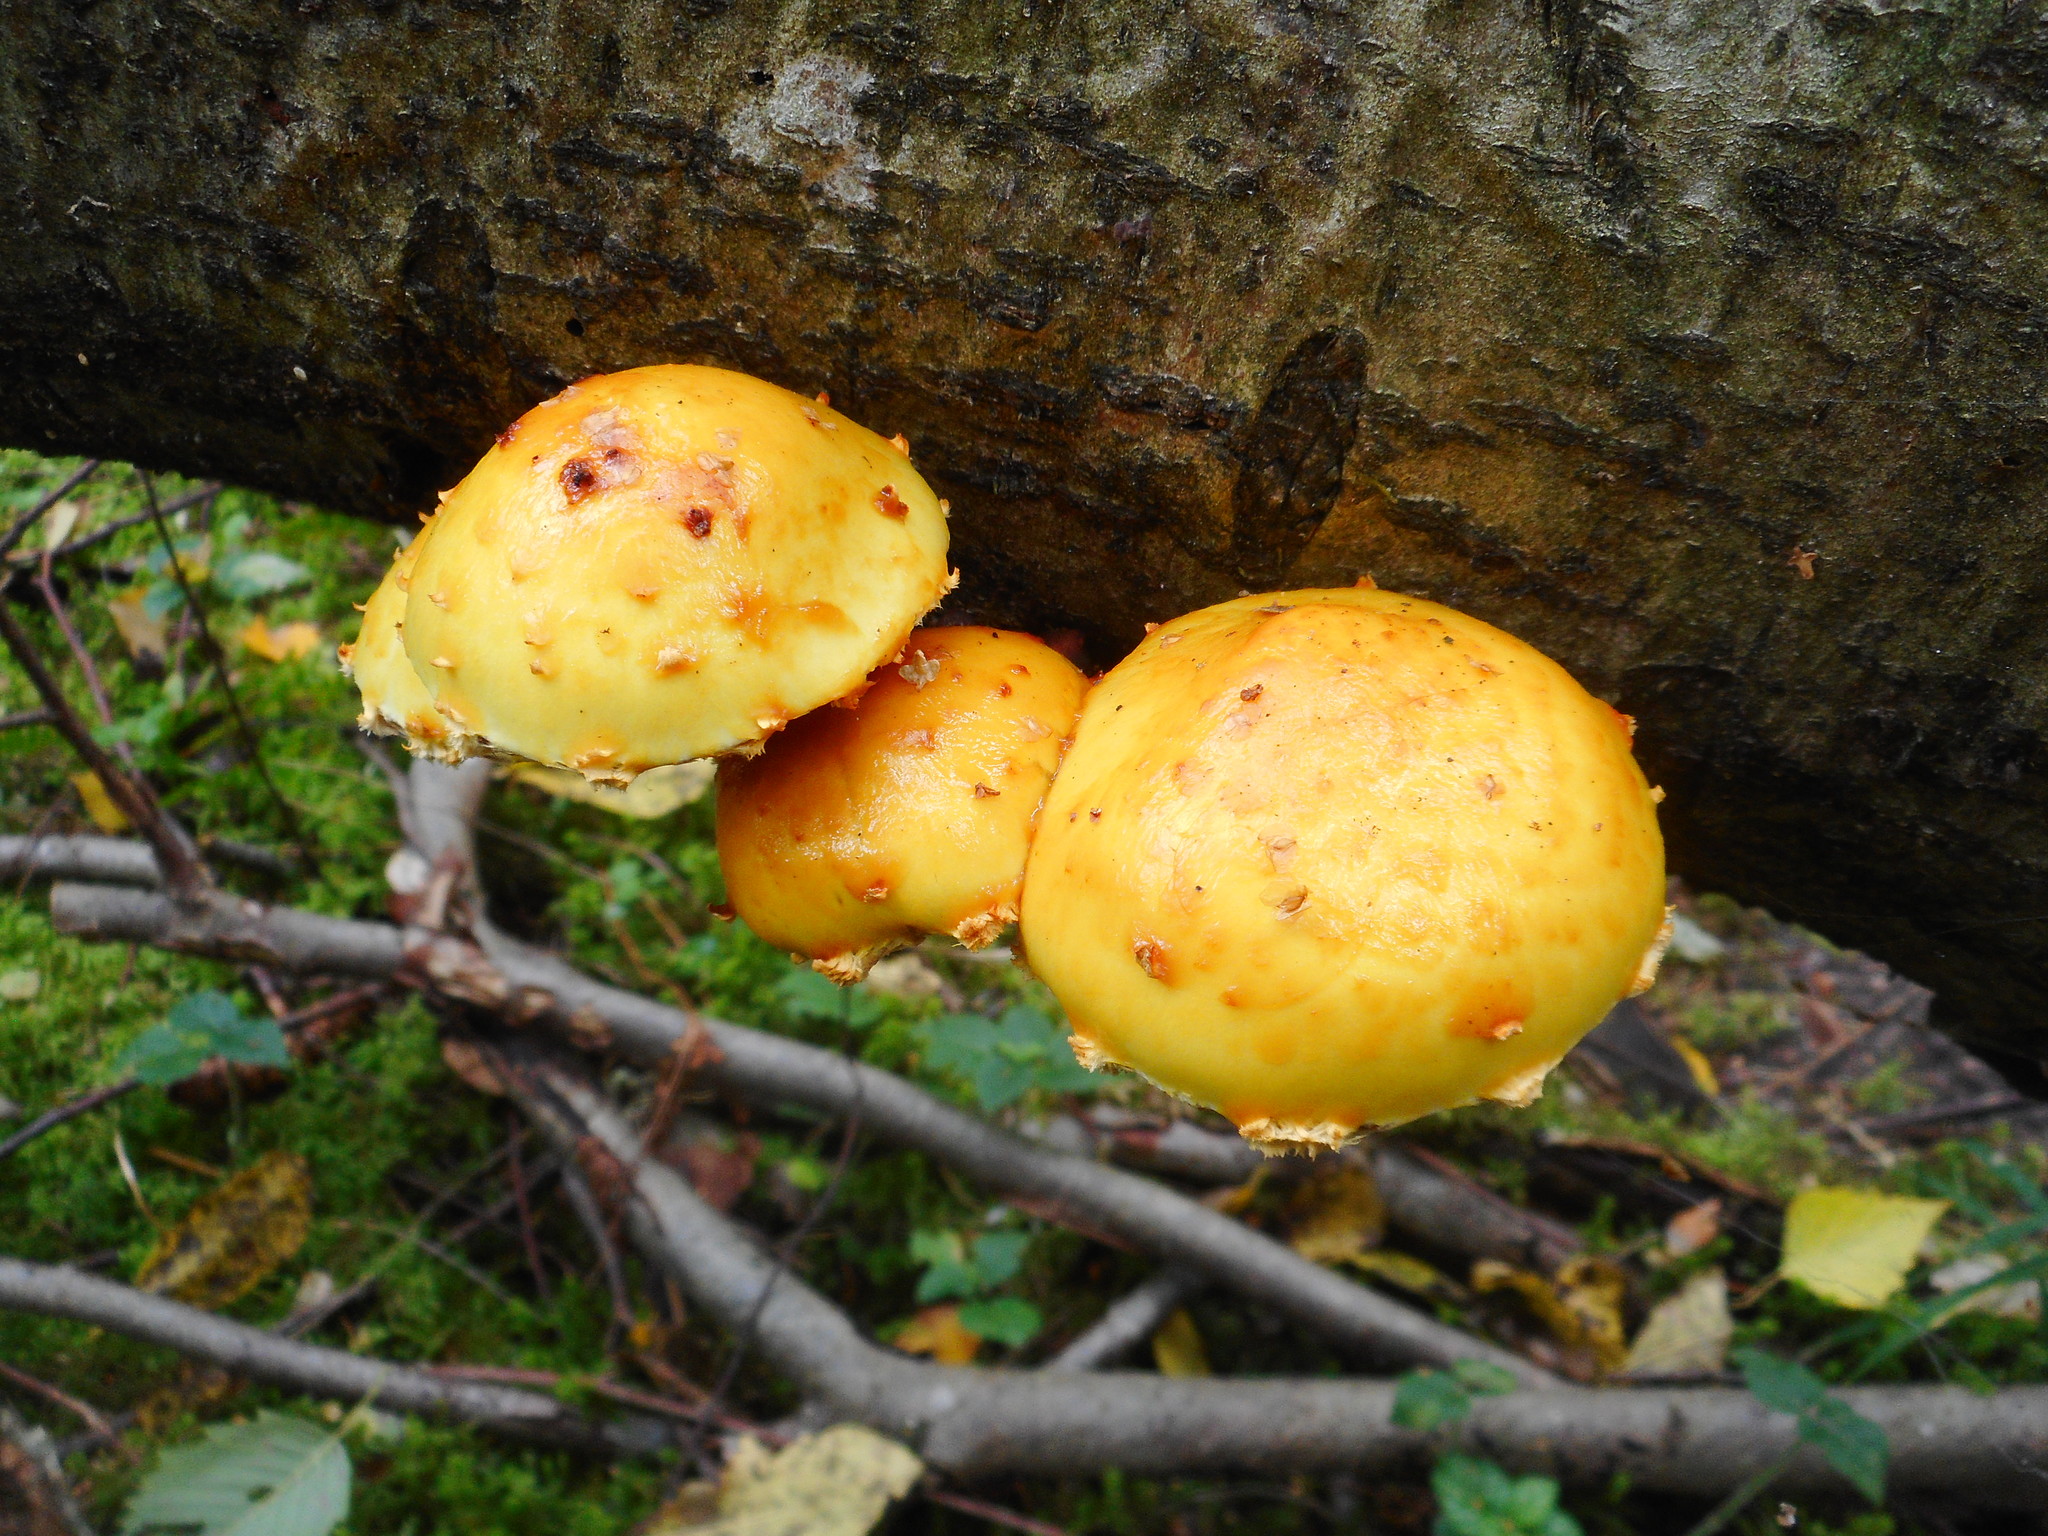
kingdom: Fungi
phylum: Basidiomycota
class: Agaricomycetes
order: Agaricales
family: Strophariaceae
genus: Pholiota
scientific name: Pholiota aurivella
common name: Golden scalycap
